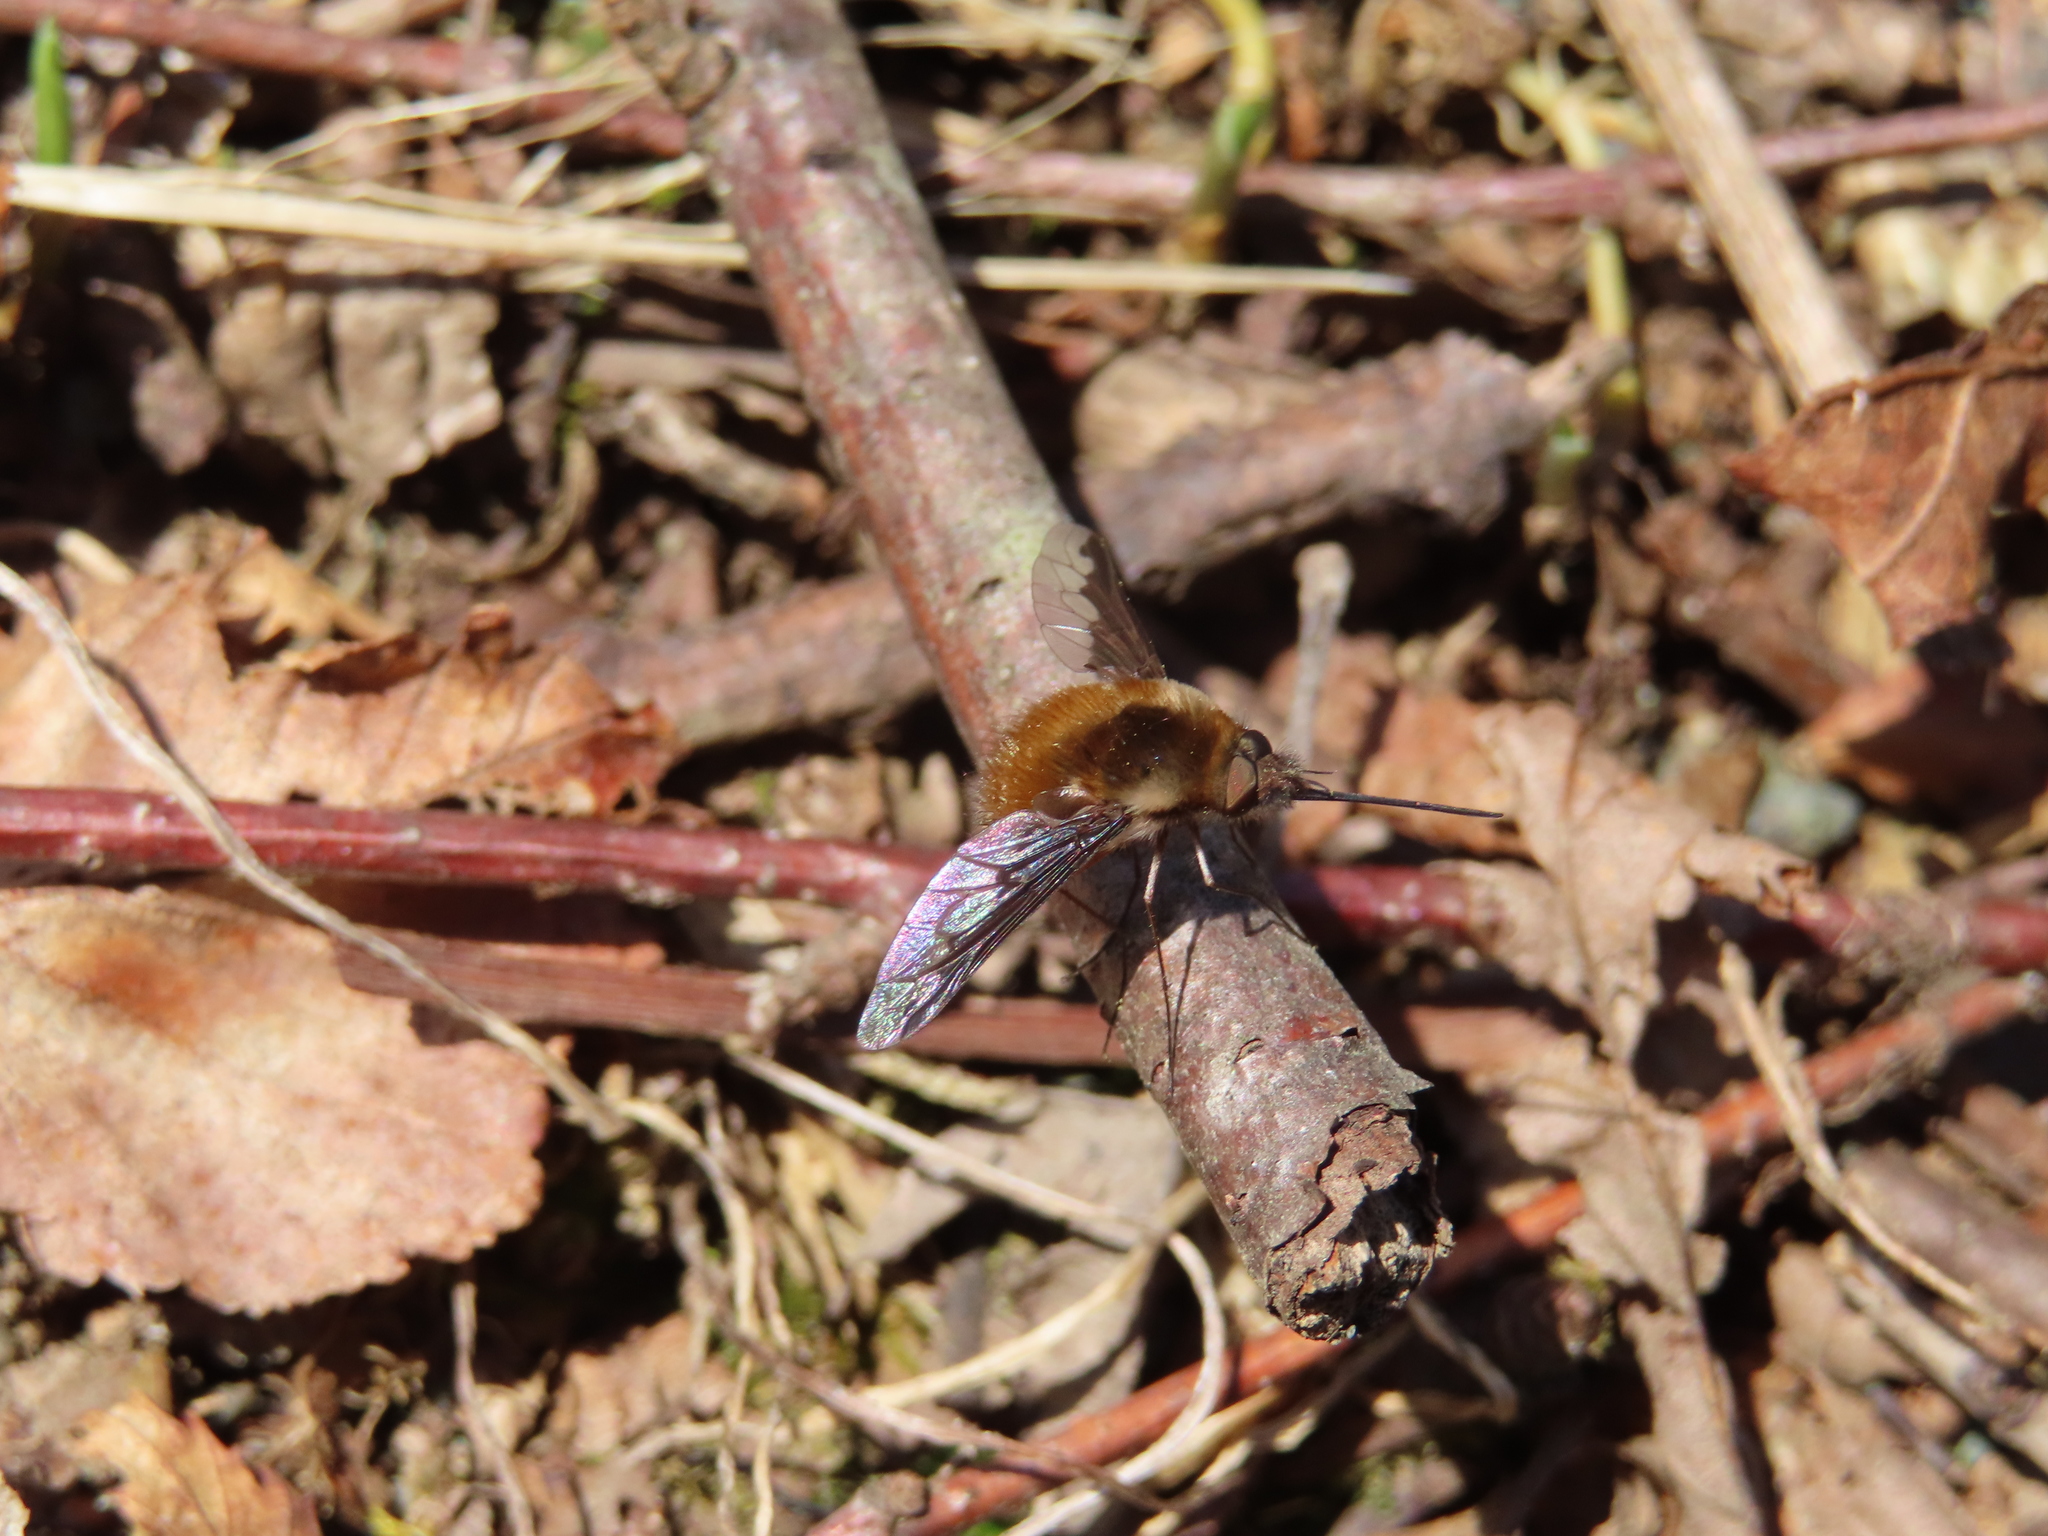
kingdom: Animalia
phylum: Arthropoda
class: Insecta
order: Diptera
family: Bombyliidae
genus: Bombylius
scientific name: Bombylius major
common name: Bee fly
